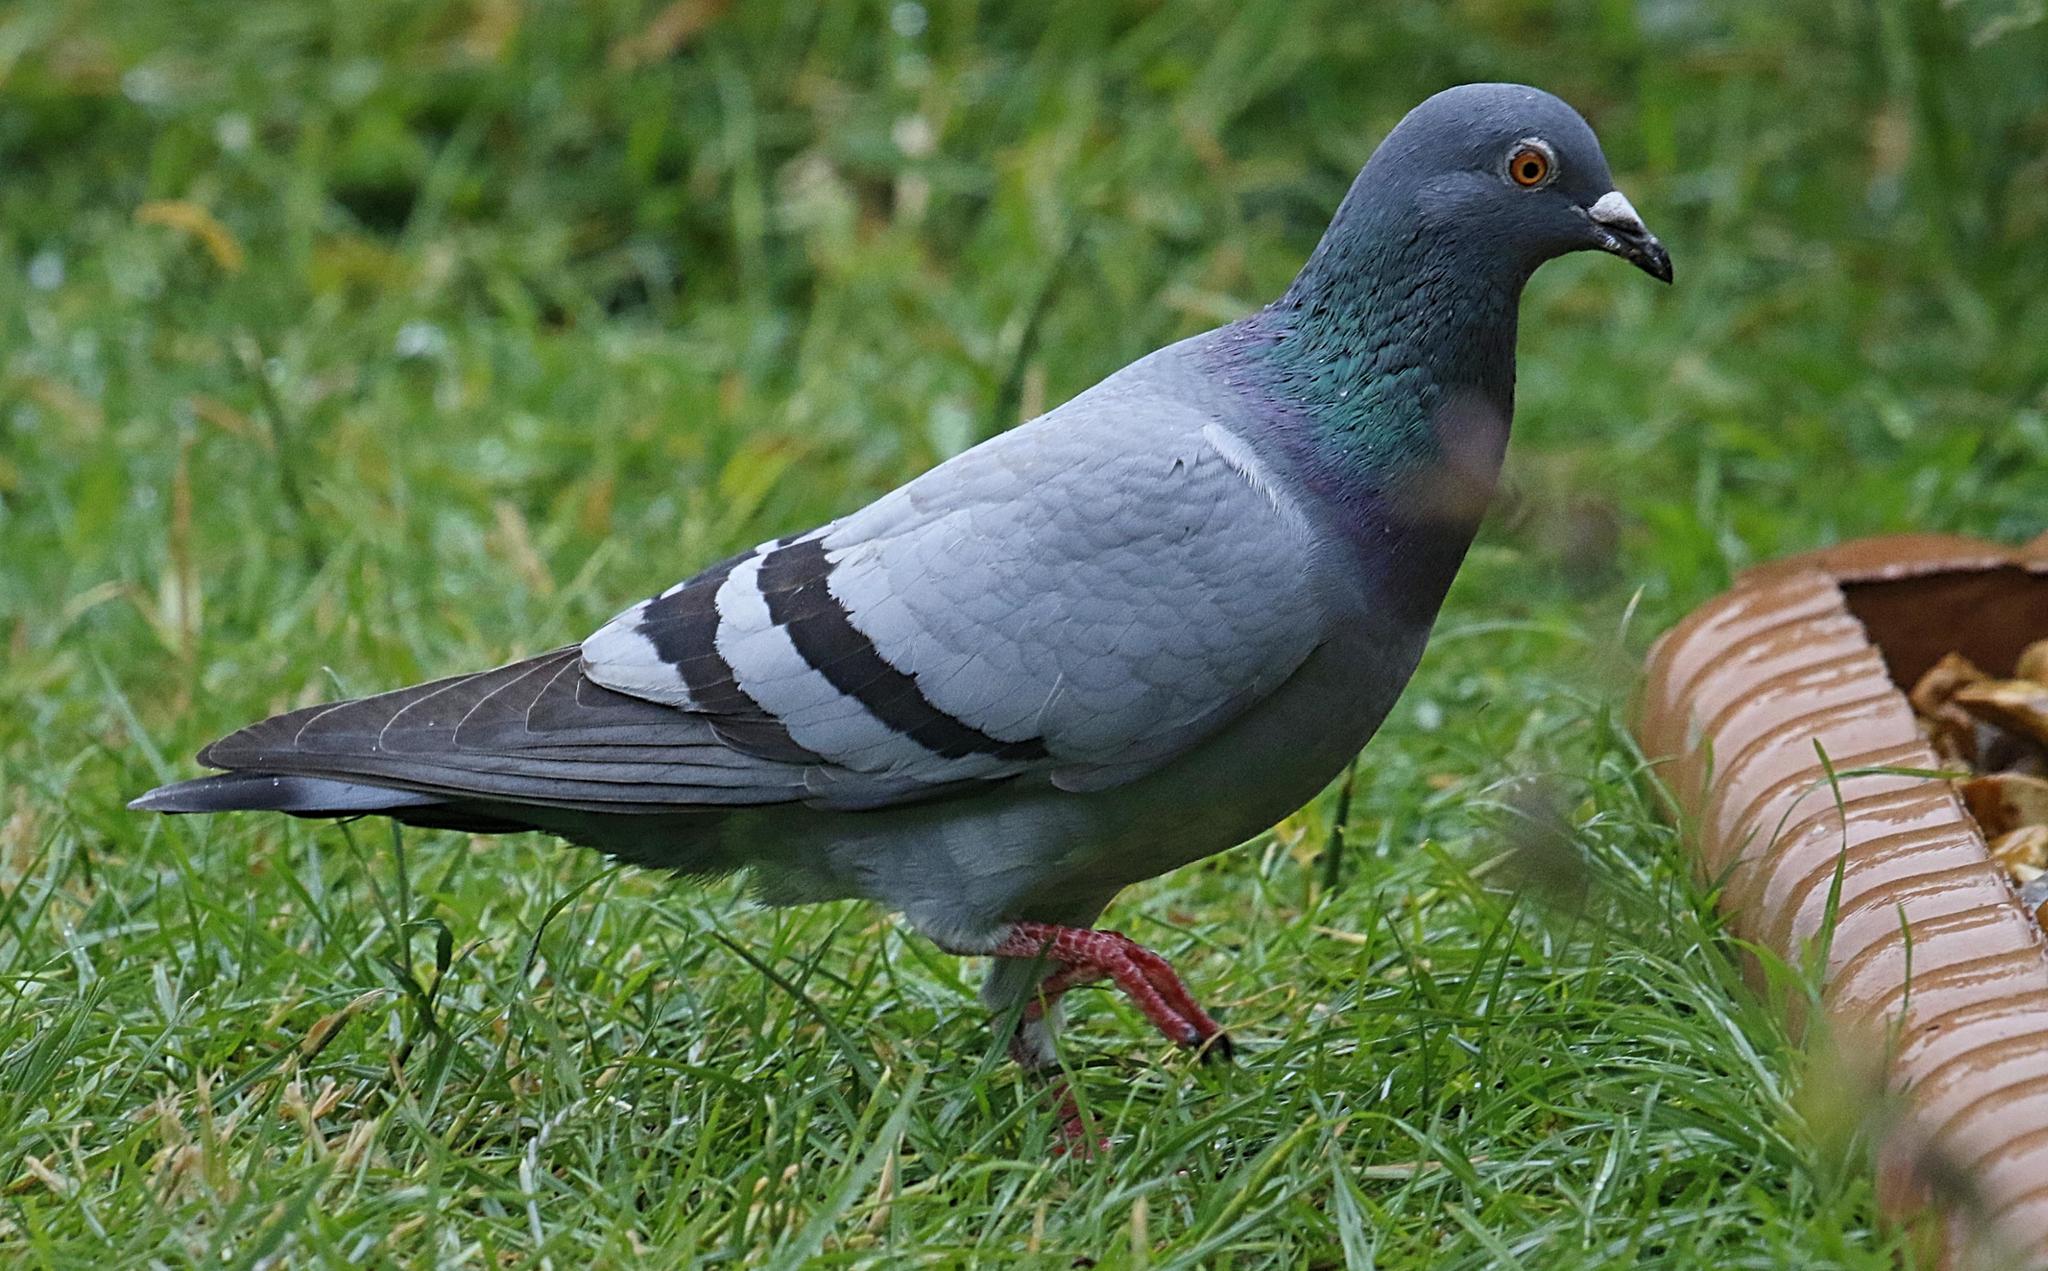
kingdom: Animalia
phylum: Chordata
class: Aves
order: Columbiformes
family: Columbidae
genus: Columba
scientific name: Columba livia
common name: Rock pigeon
